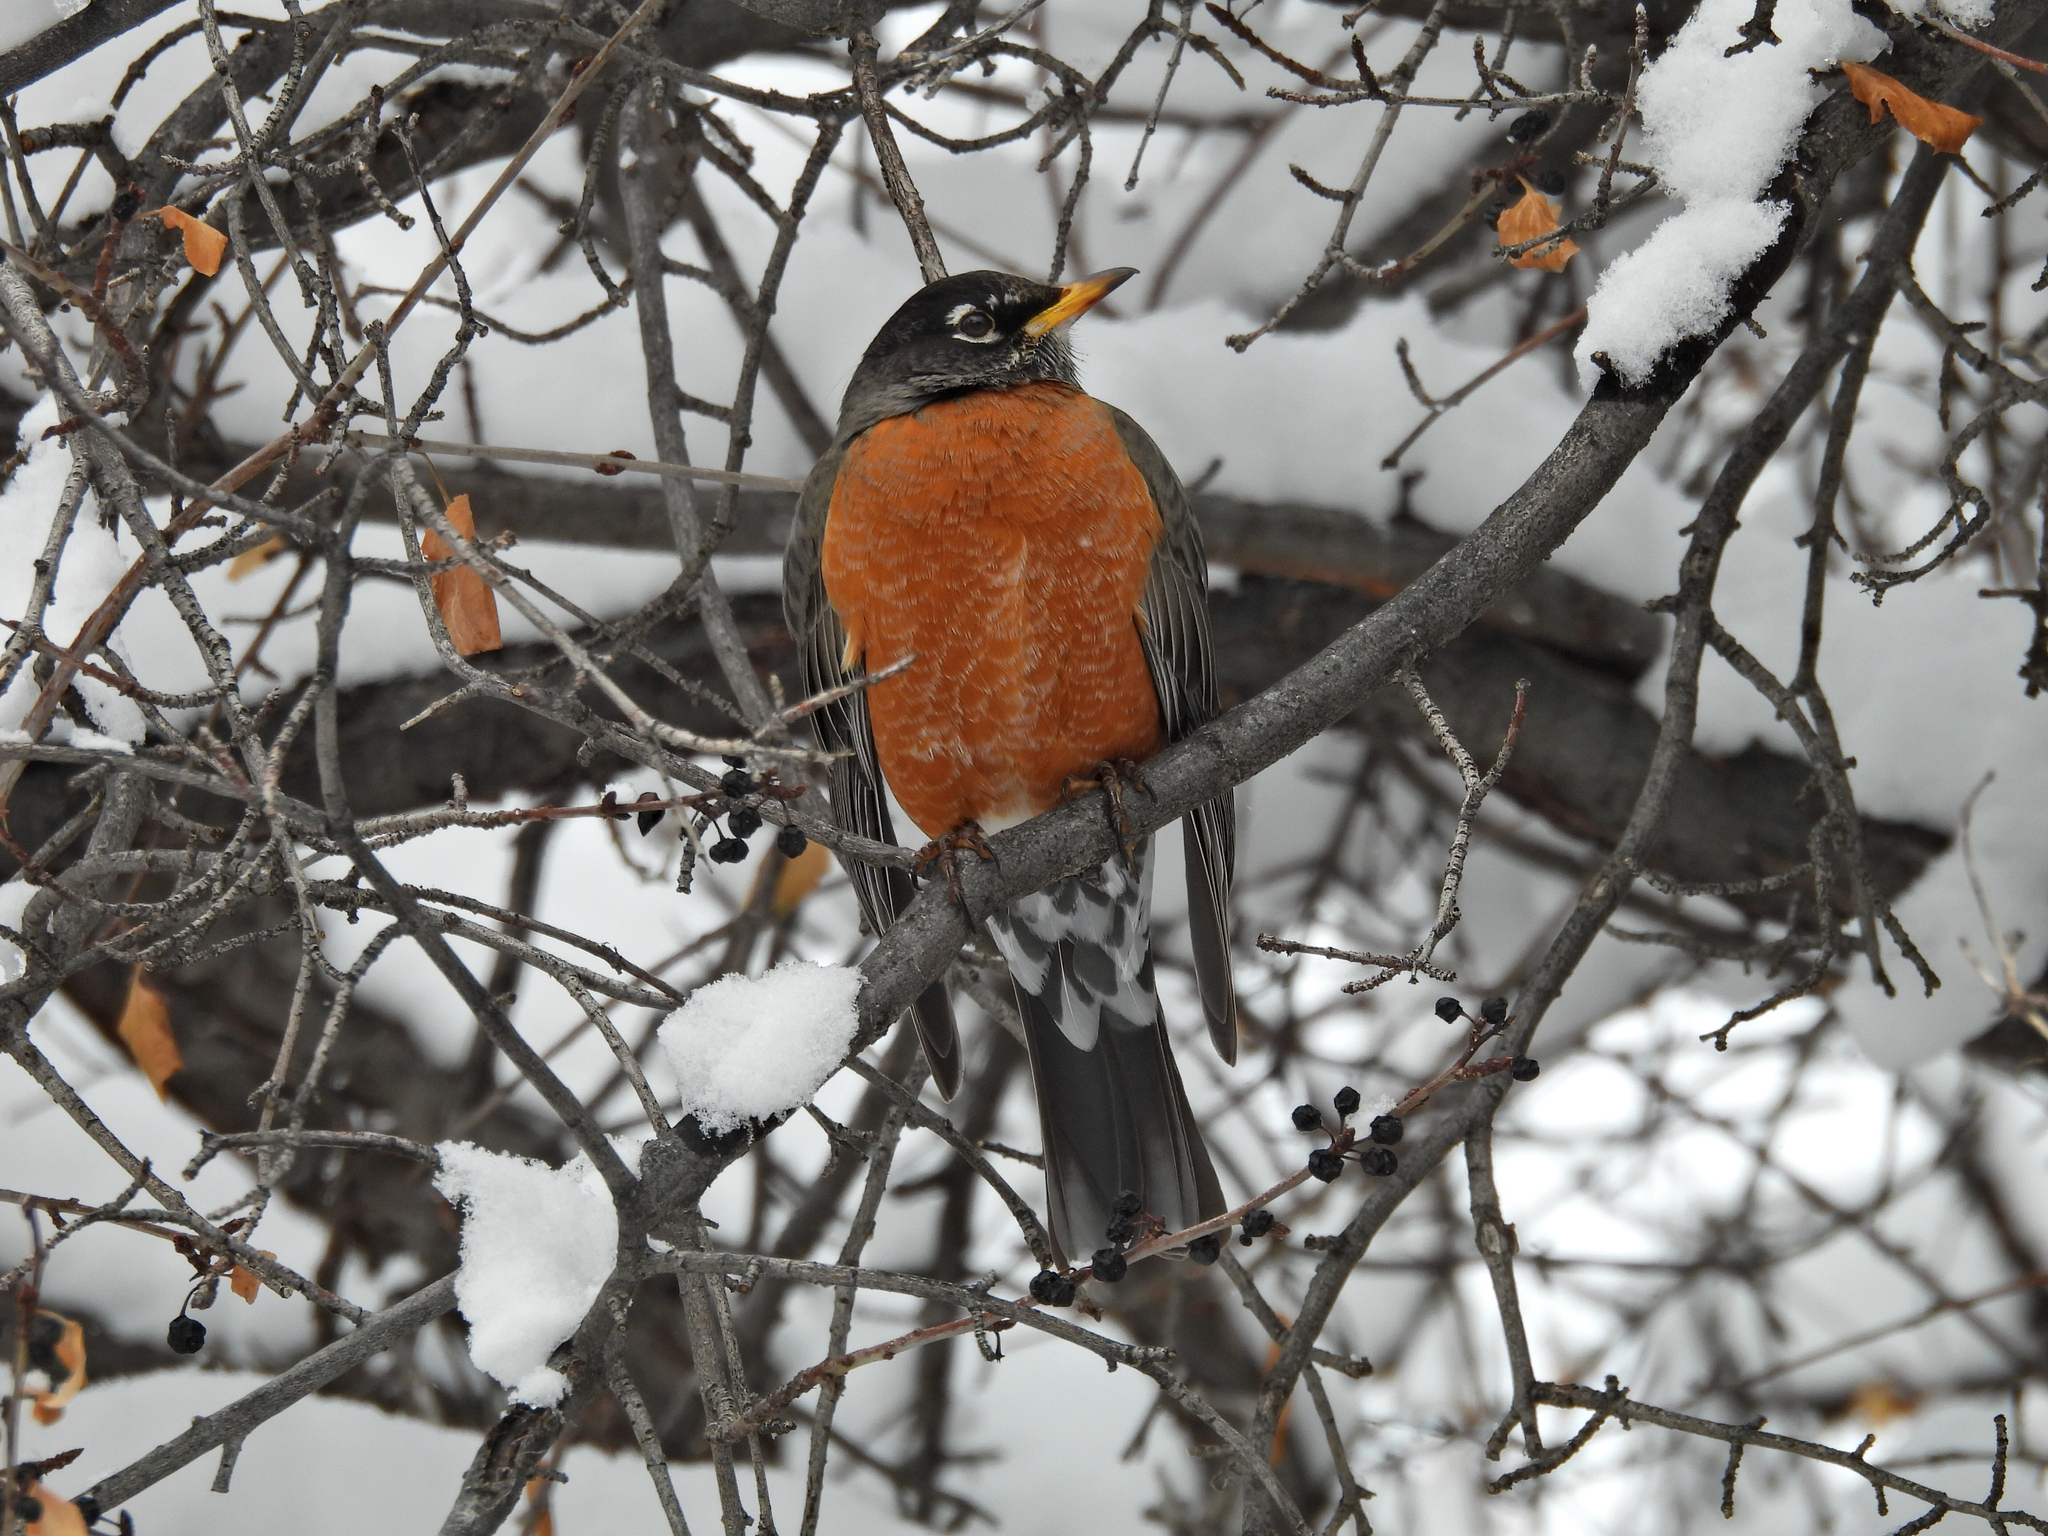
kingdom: Animalia
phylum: Chordata
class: Aves
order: Passeriformes
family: Turdidae
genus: Turdus
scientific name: Turdus migratorius
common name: American robin
